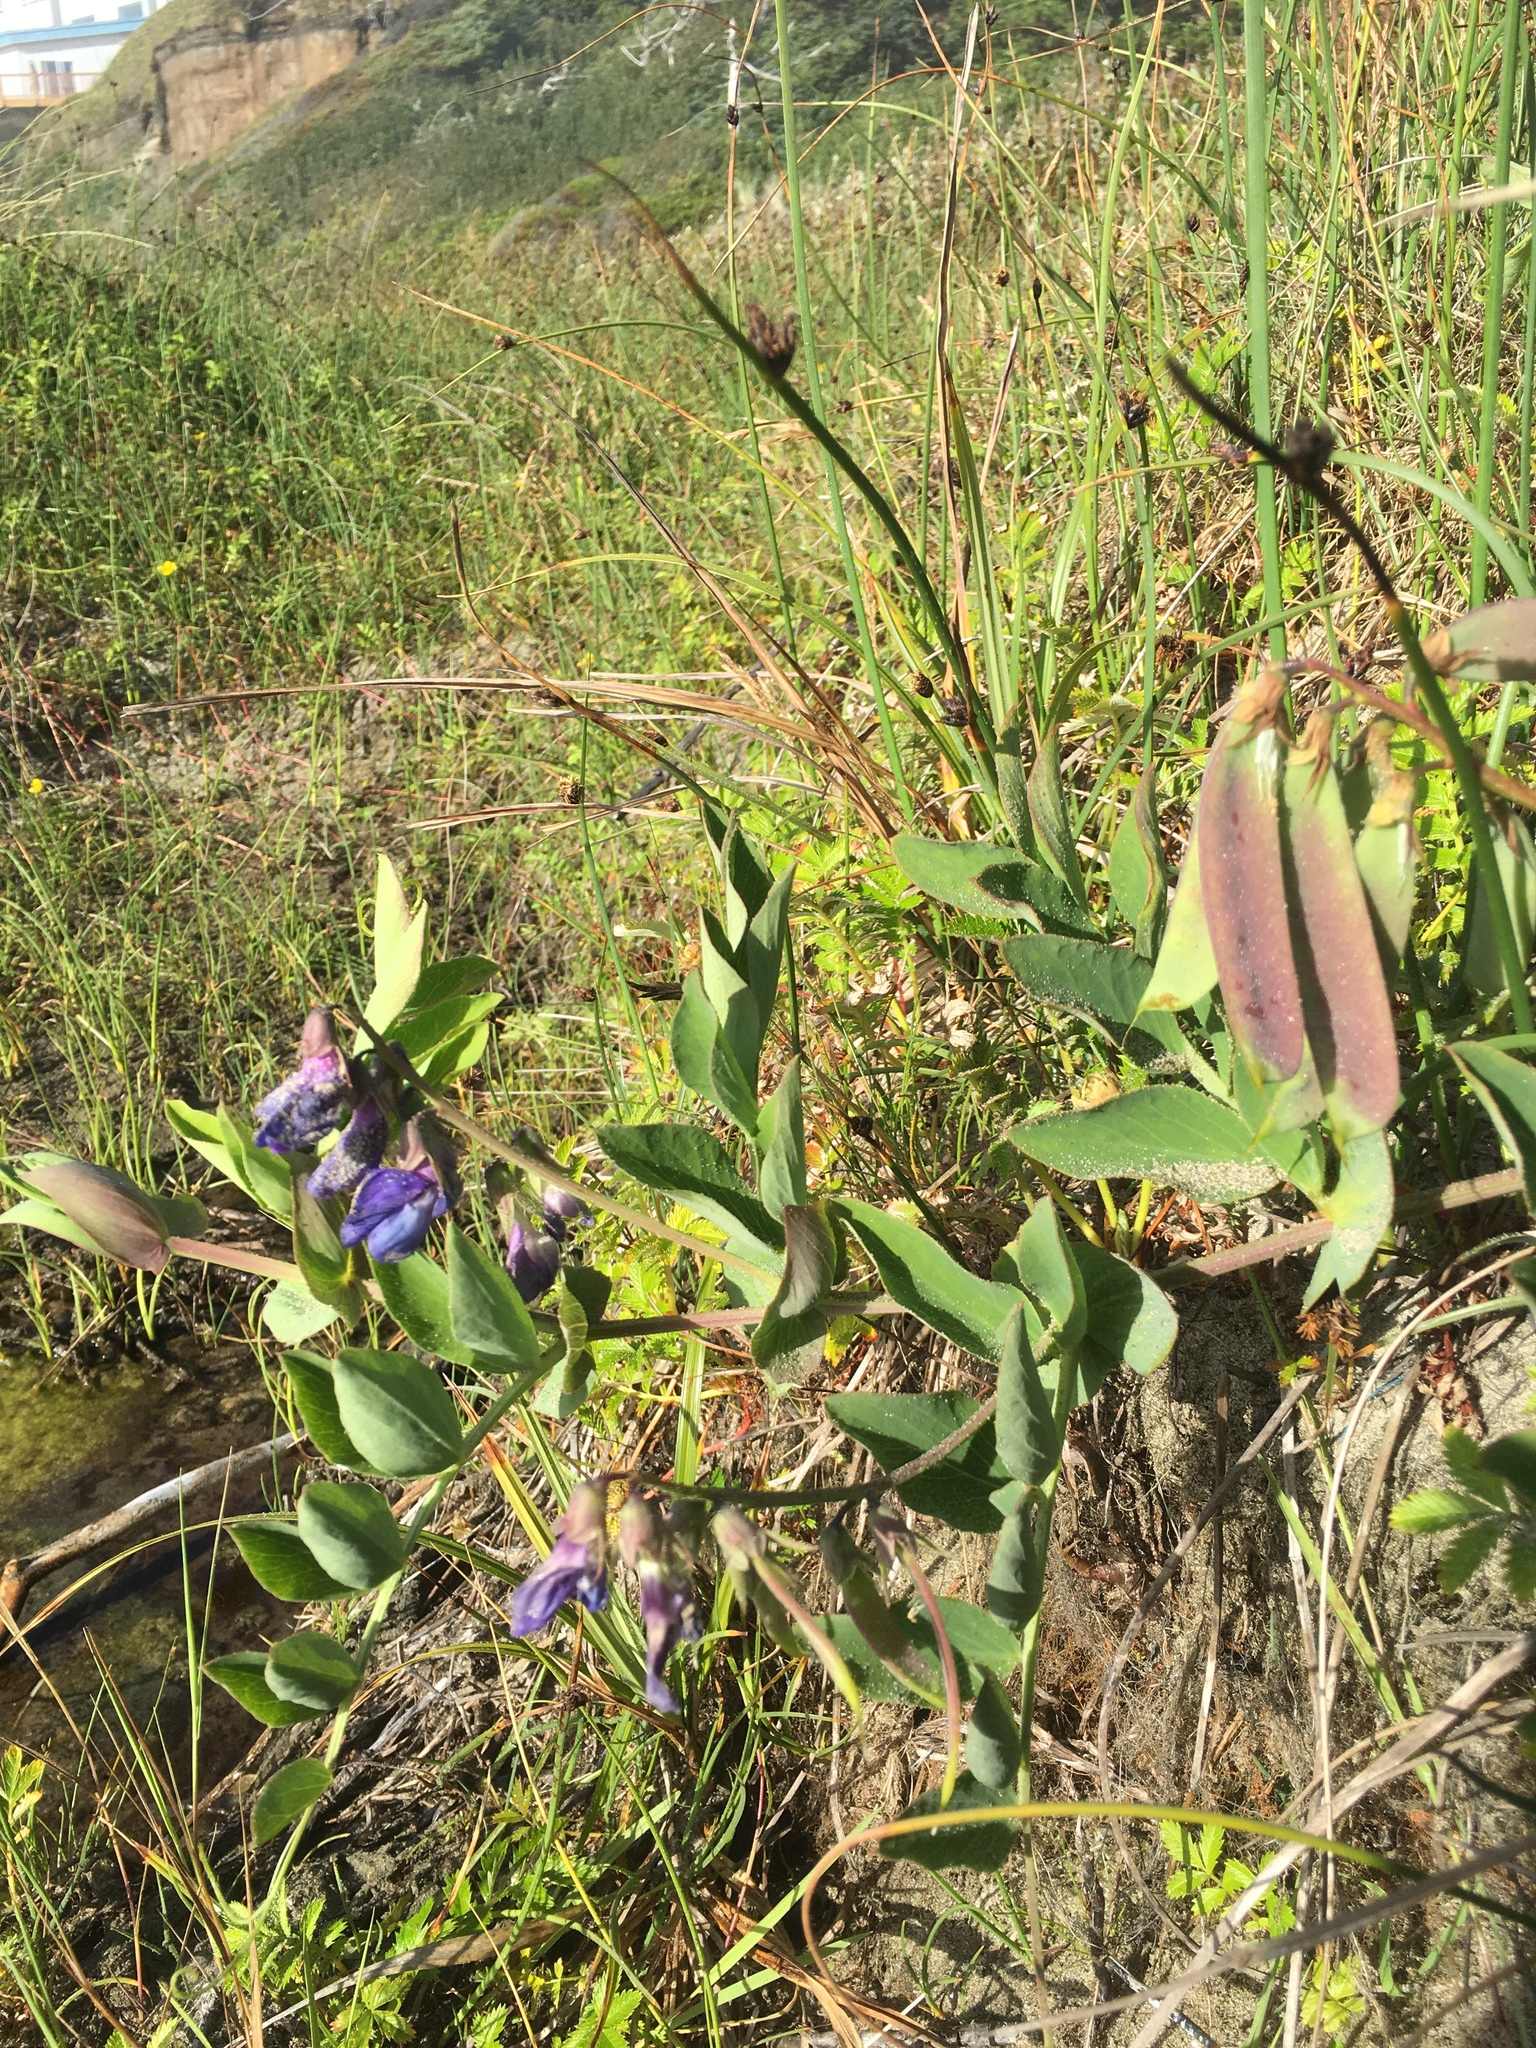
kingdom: Plantae
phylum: Tracheophyta
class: Magnoliopsida
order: Fabales
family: Fabaceae
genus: Lathyrus
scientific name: Lathyrus japonicus
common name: Sea pea
